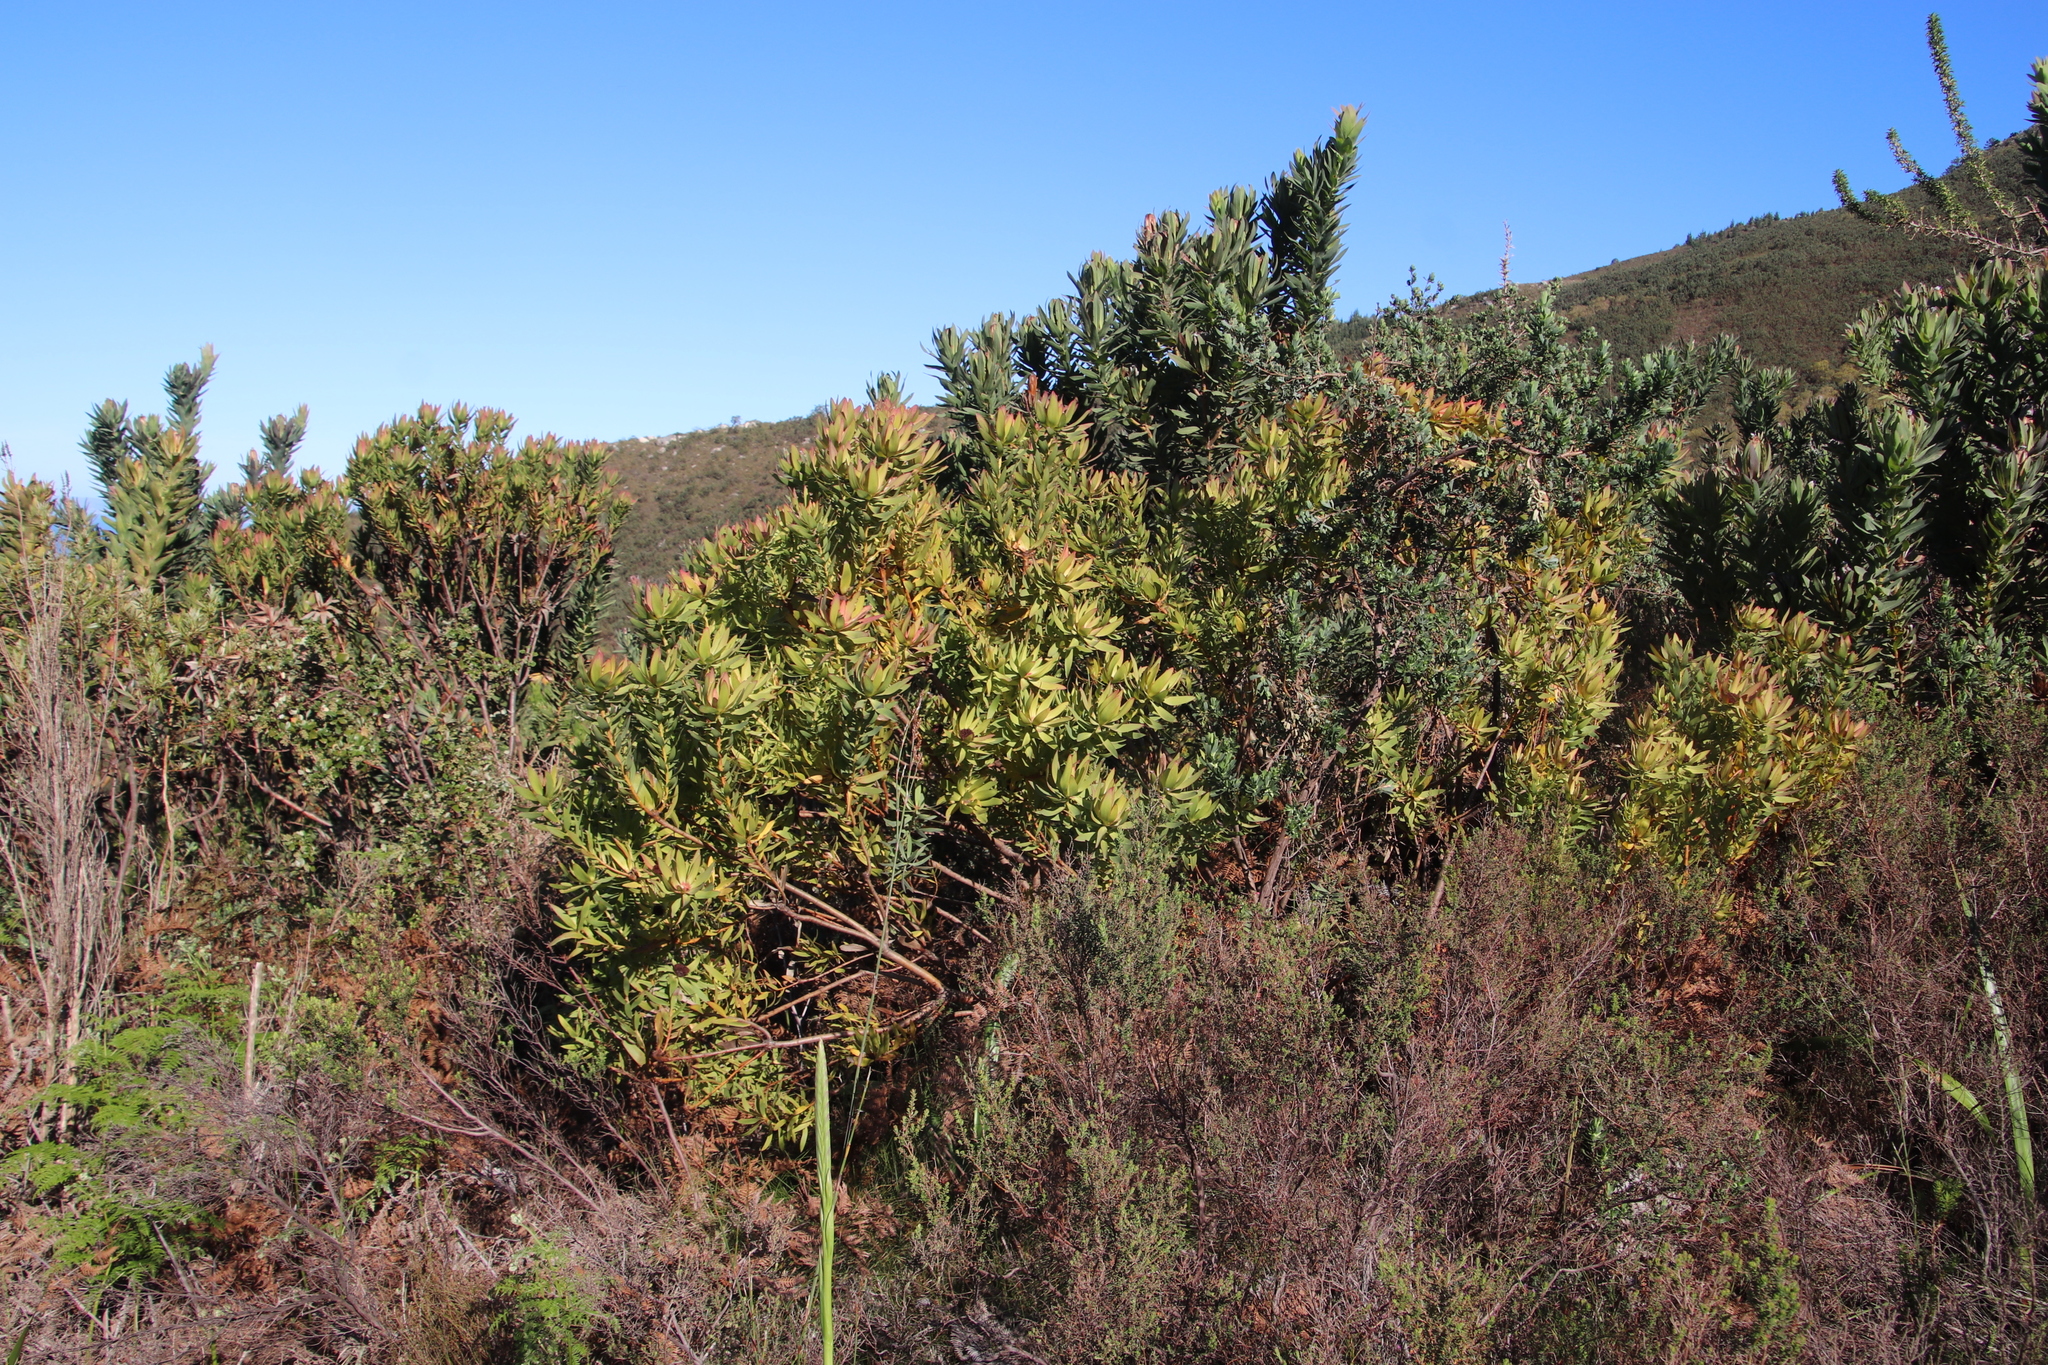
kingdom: Plantae
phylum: Tracheophyta
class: Magnoliopsida
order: Proteales
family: Proteaceae
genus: Leucadendron
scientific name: Leucadendron sessile
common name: Western sunbush
